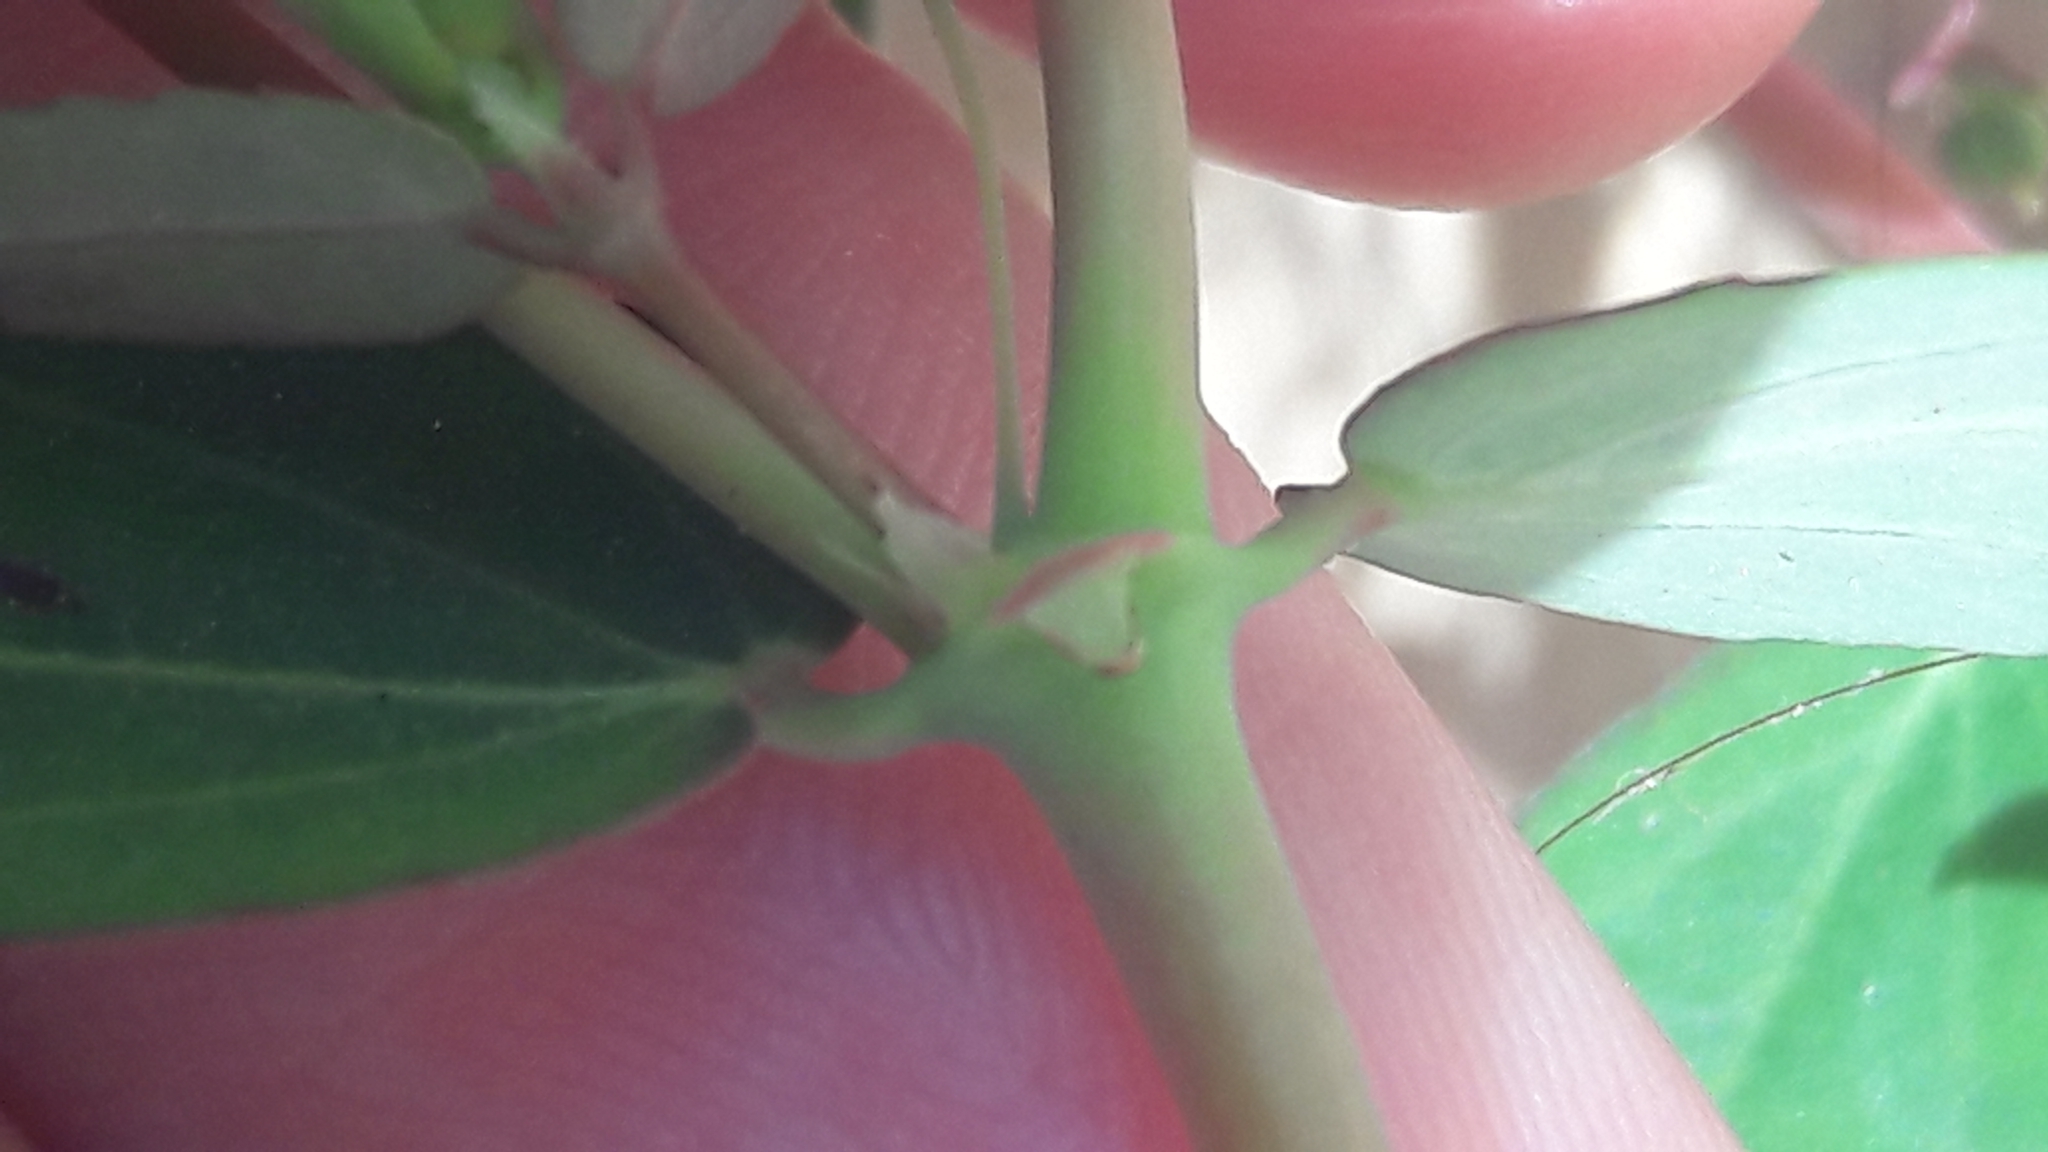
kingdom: Plantae
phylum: Tracheophyta
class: Magnoliopsida
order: Malpighiales
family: Euphorbiaceae
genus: Euphorbia
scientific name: Euphorbia hypericifolia
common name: Graceful sandmat
